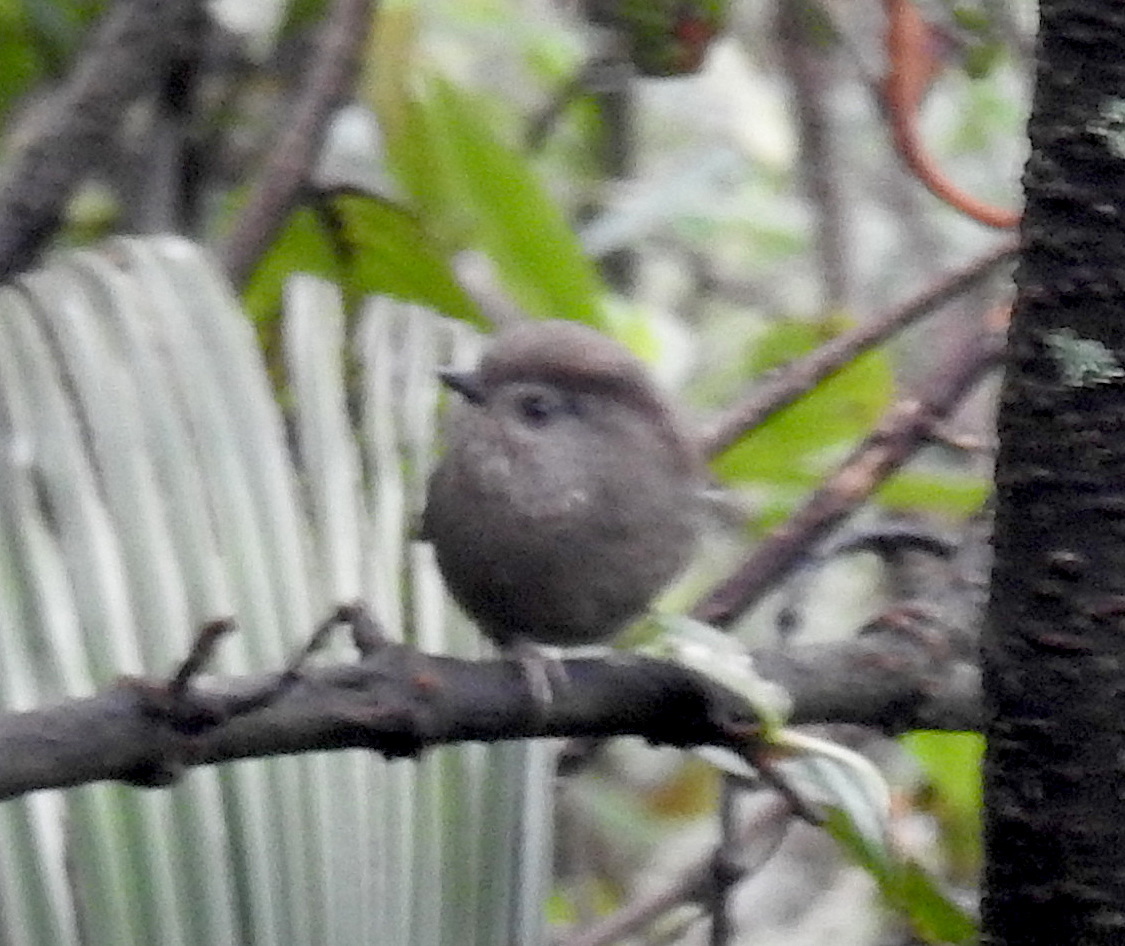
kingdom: Animalia
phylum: Chordata
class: Aves
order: Passeriformes
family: Sylviidae
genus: Fulvetta
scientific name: Fulvetta manipurensis
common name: Manipur fulvetta
